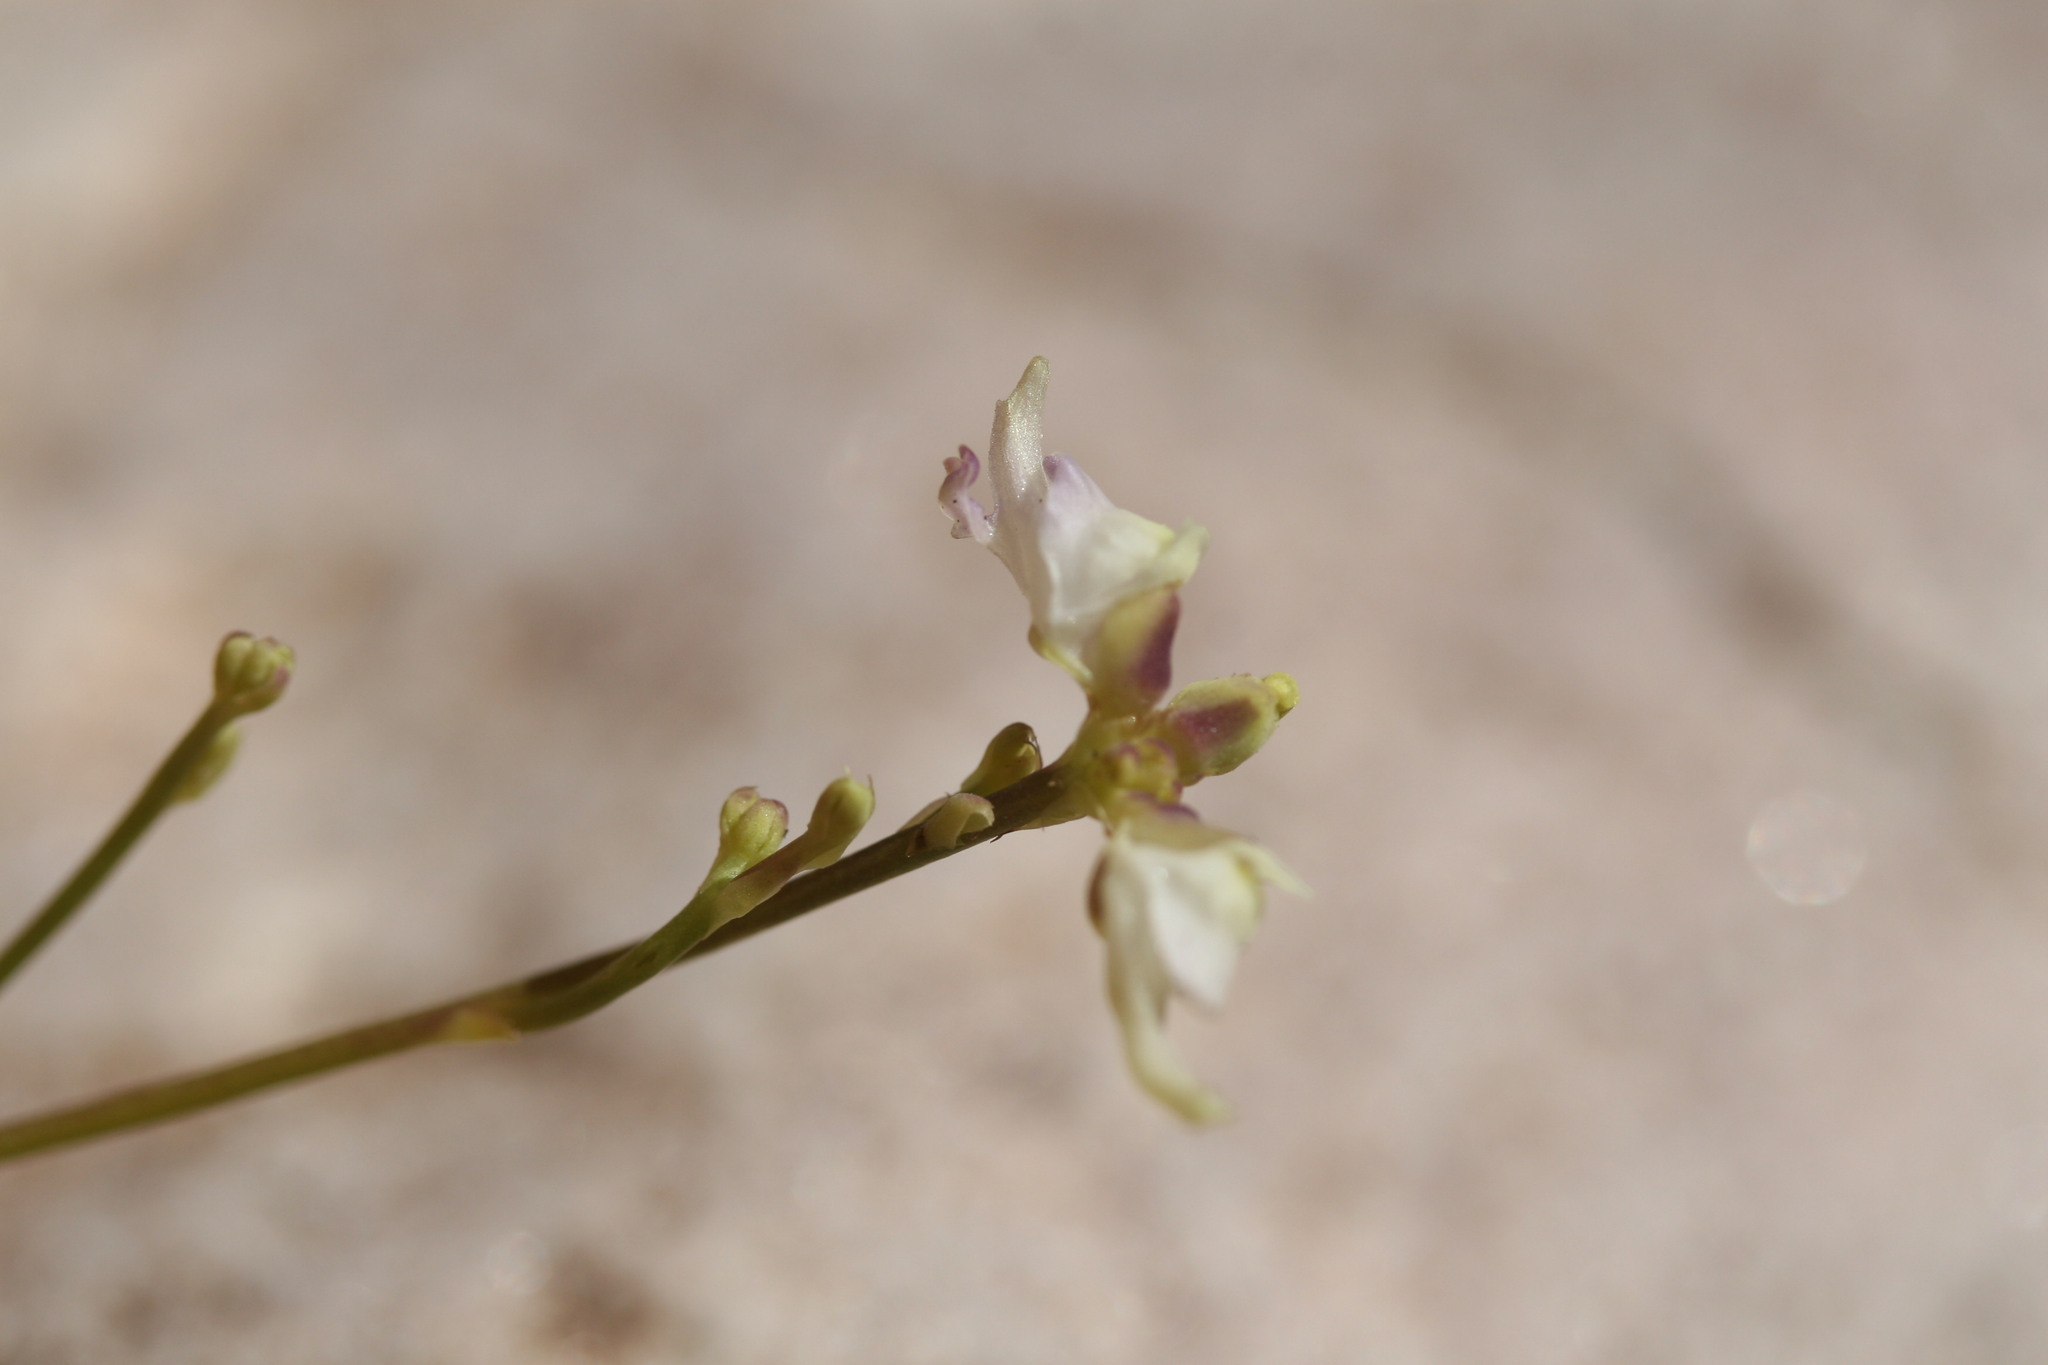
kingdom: Plantae
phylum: Tracheophyta
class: Magnoliopsida
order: Lamiales
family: Lentibulariaceae
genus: Utricularia
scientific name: Utricularia caerulea
